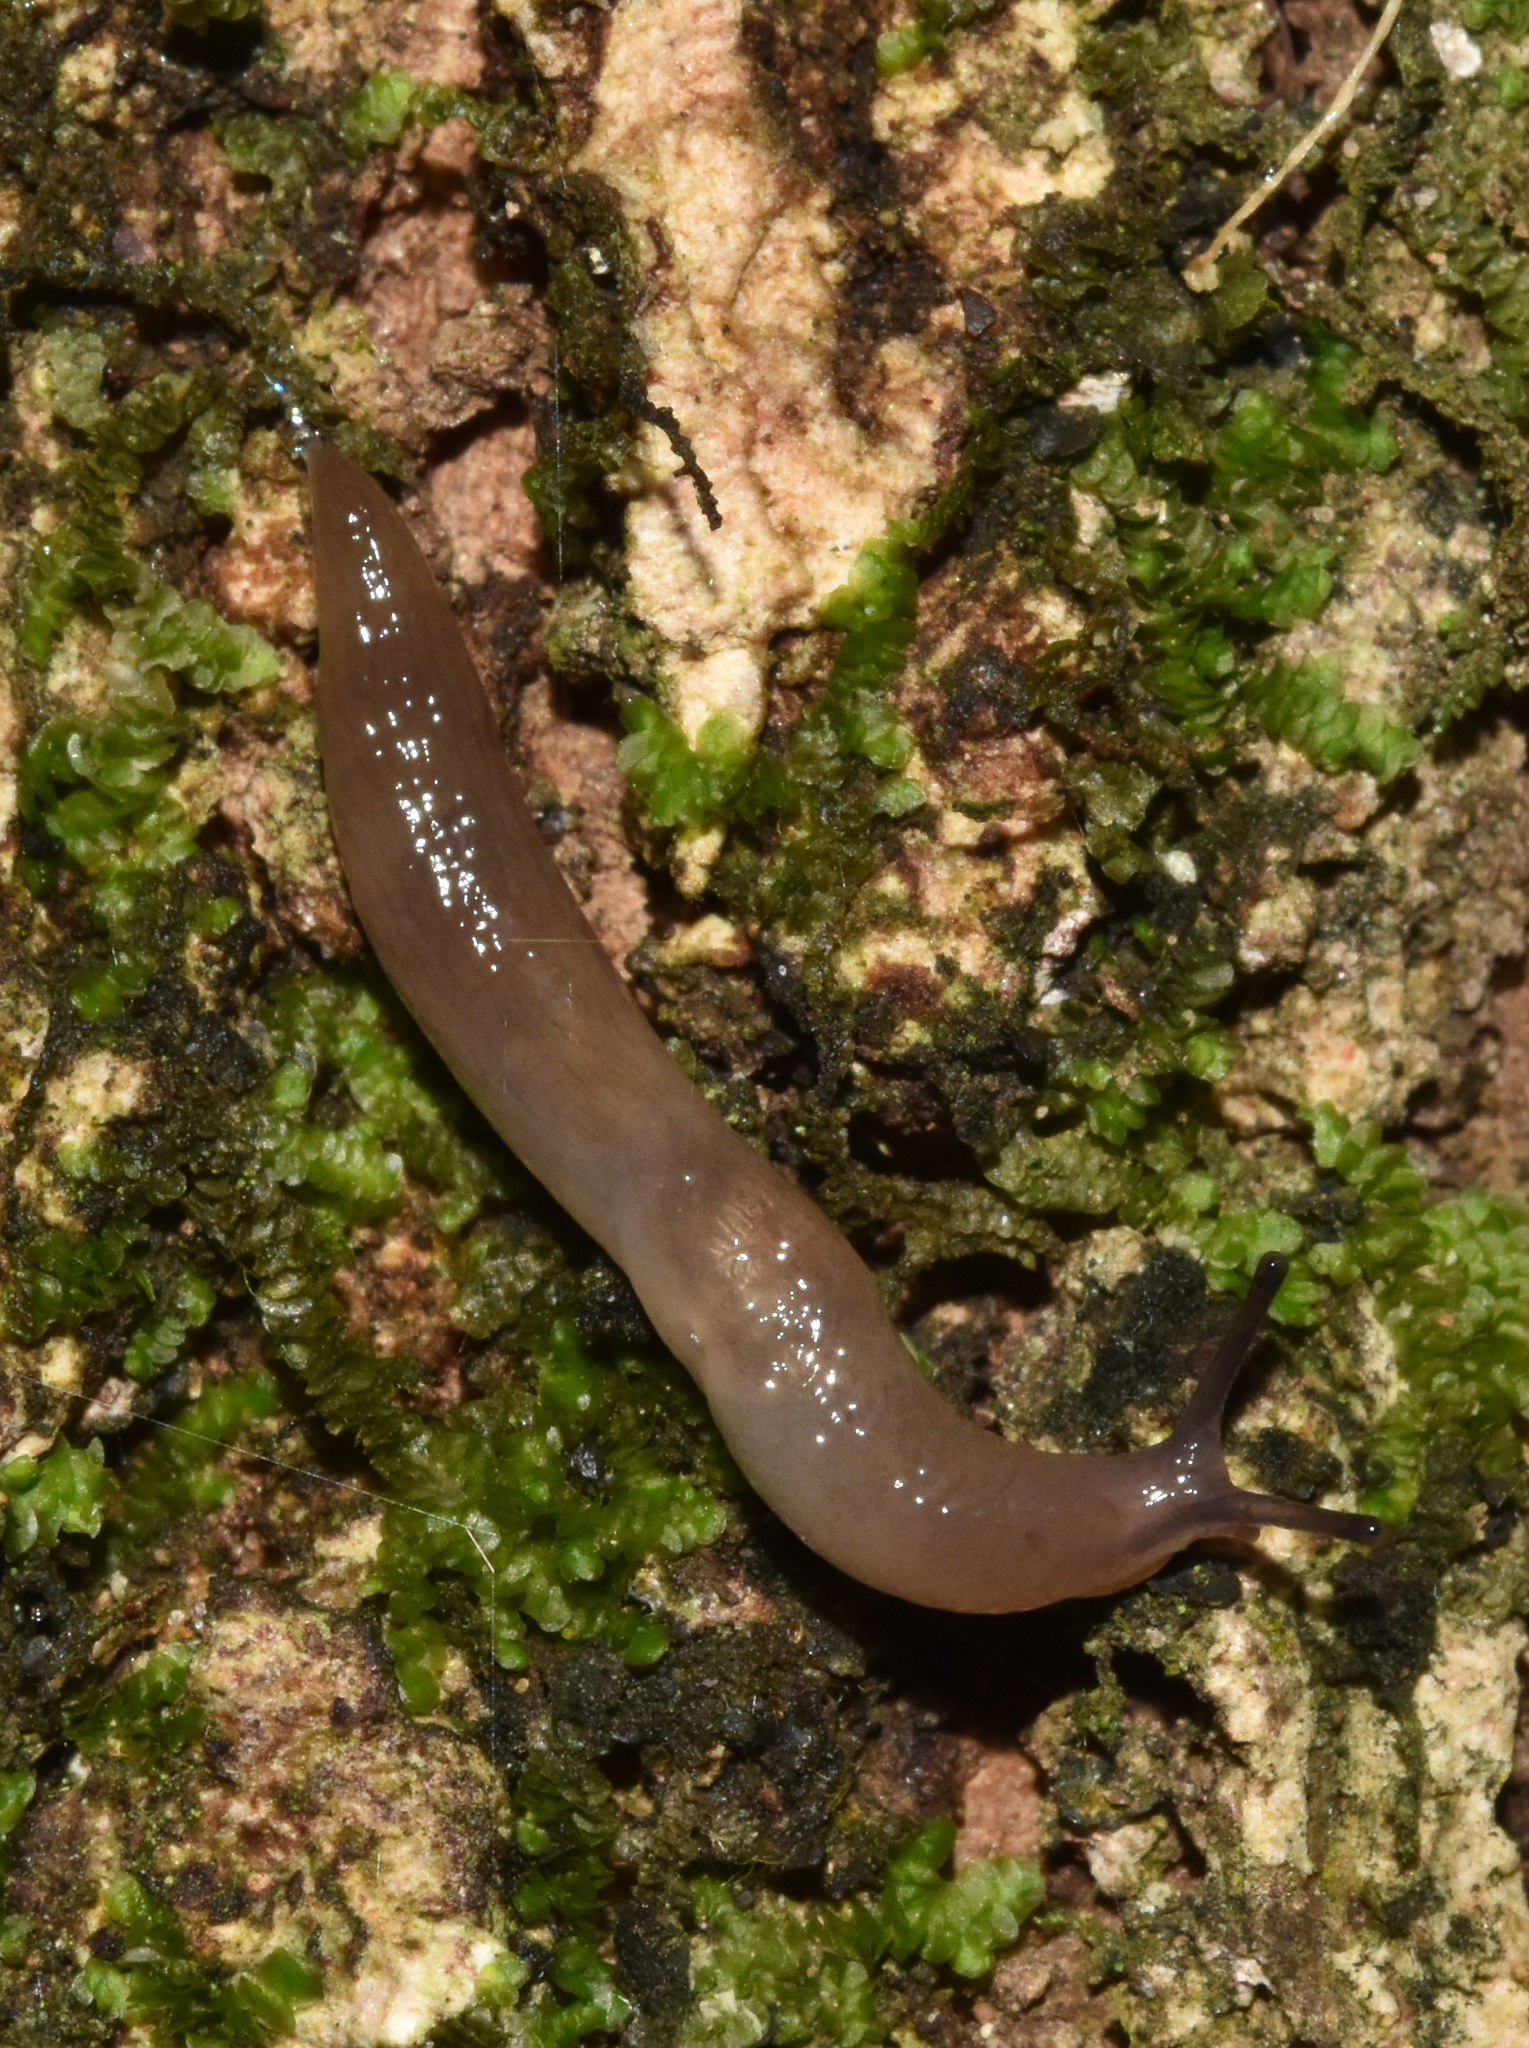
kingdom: Animalia
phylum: Mollusca
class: Gastropoda
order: Stylommatophora
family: Agriolimacidae
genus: Deroceras
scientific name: Deroceras laeve
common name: Marsh slug
